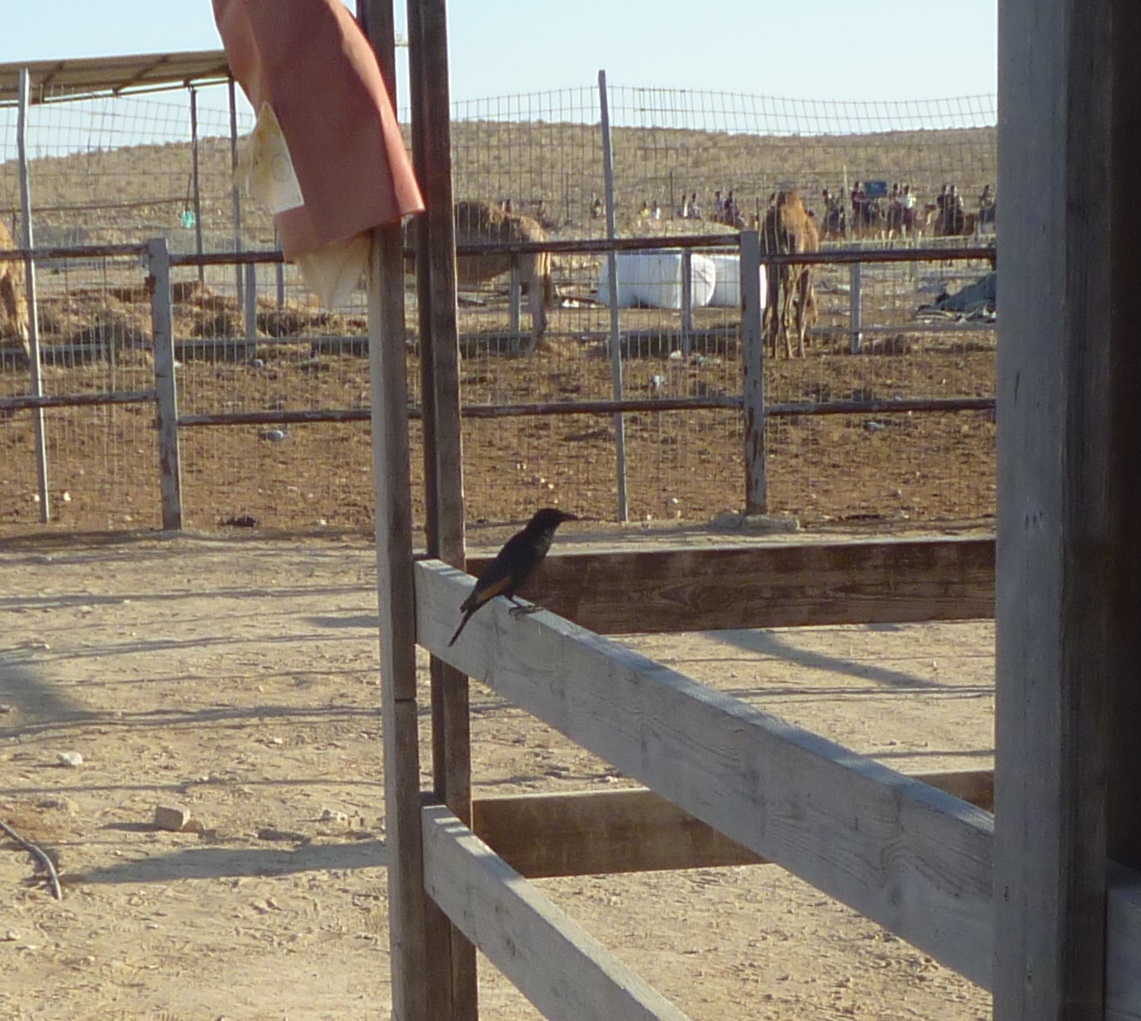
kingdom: Animalia
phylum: Chordata
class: Aves
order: Passeriformes
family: Sturnidae
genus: Onychognathus
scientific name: Onychognathus tristramii
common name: Tristram's starling
